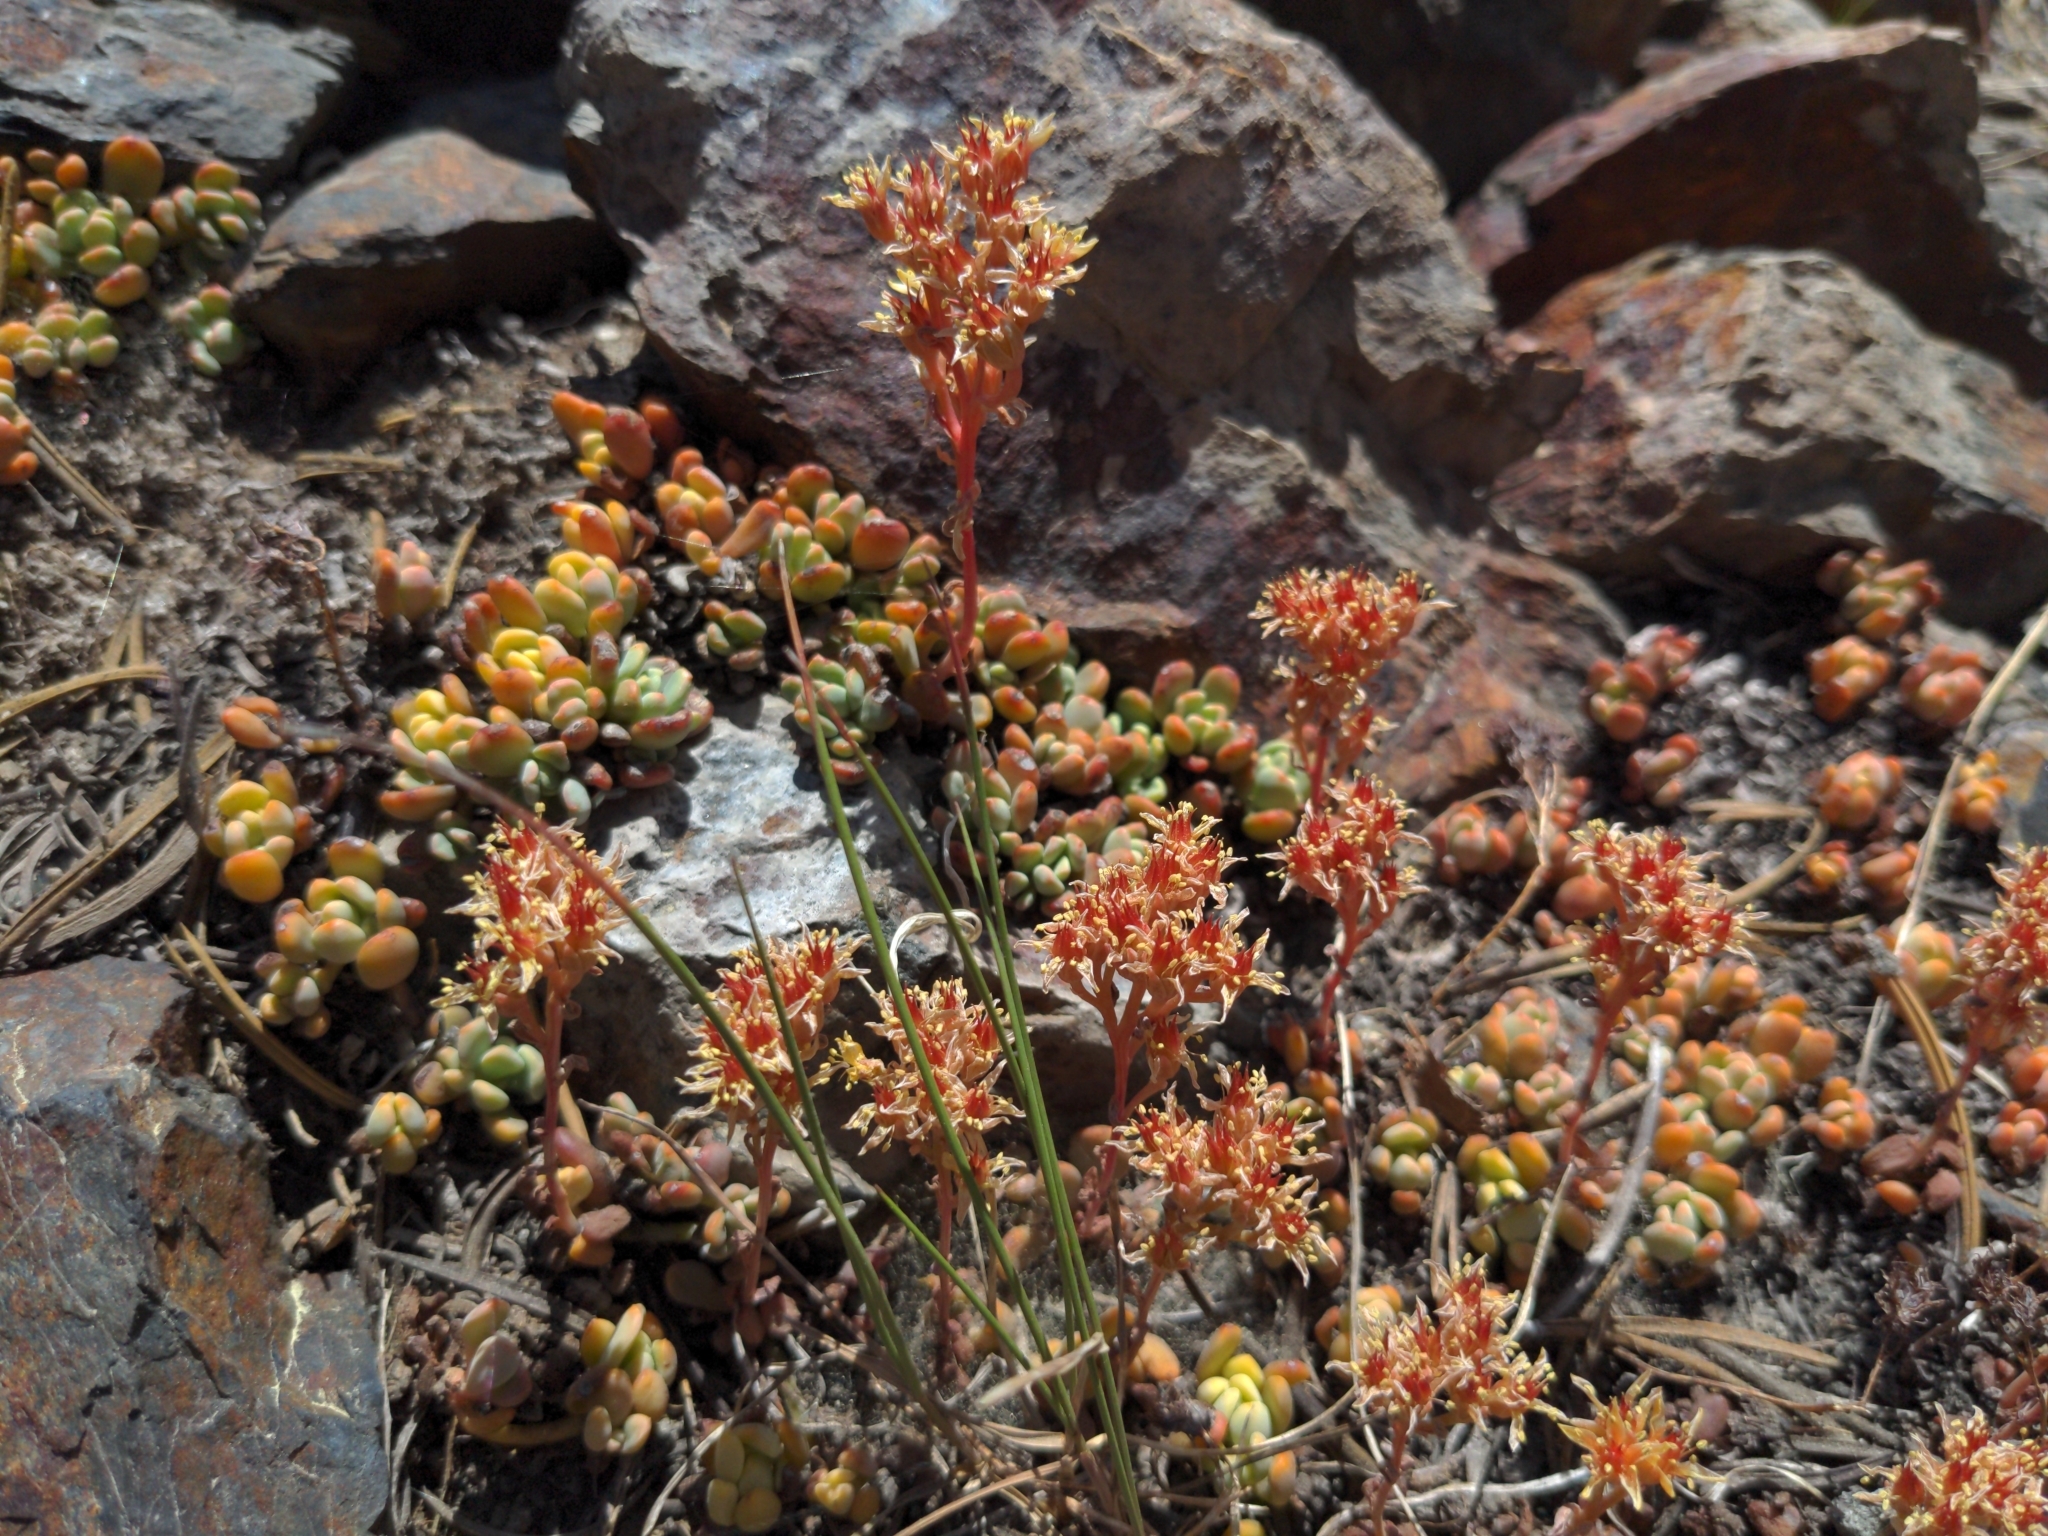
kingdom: Plantae
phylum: Tracheophyta
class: Magnoliopsida
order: Saxifragales
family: Crassulaceae
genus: Sedum
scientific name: Sedum obtusatum
